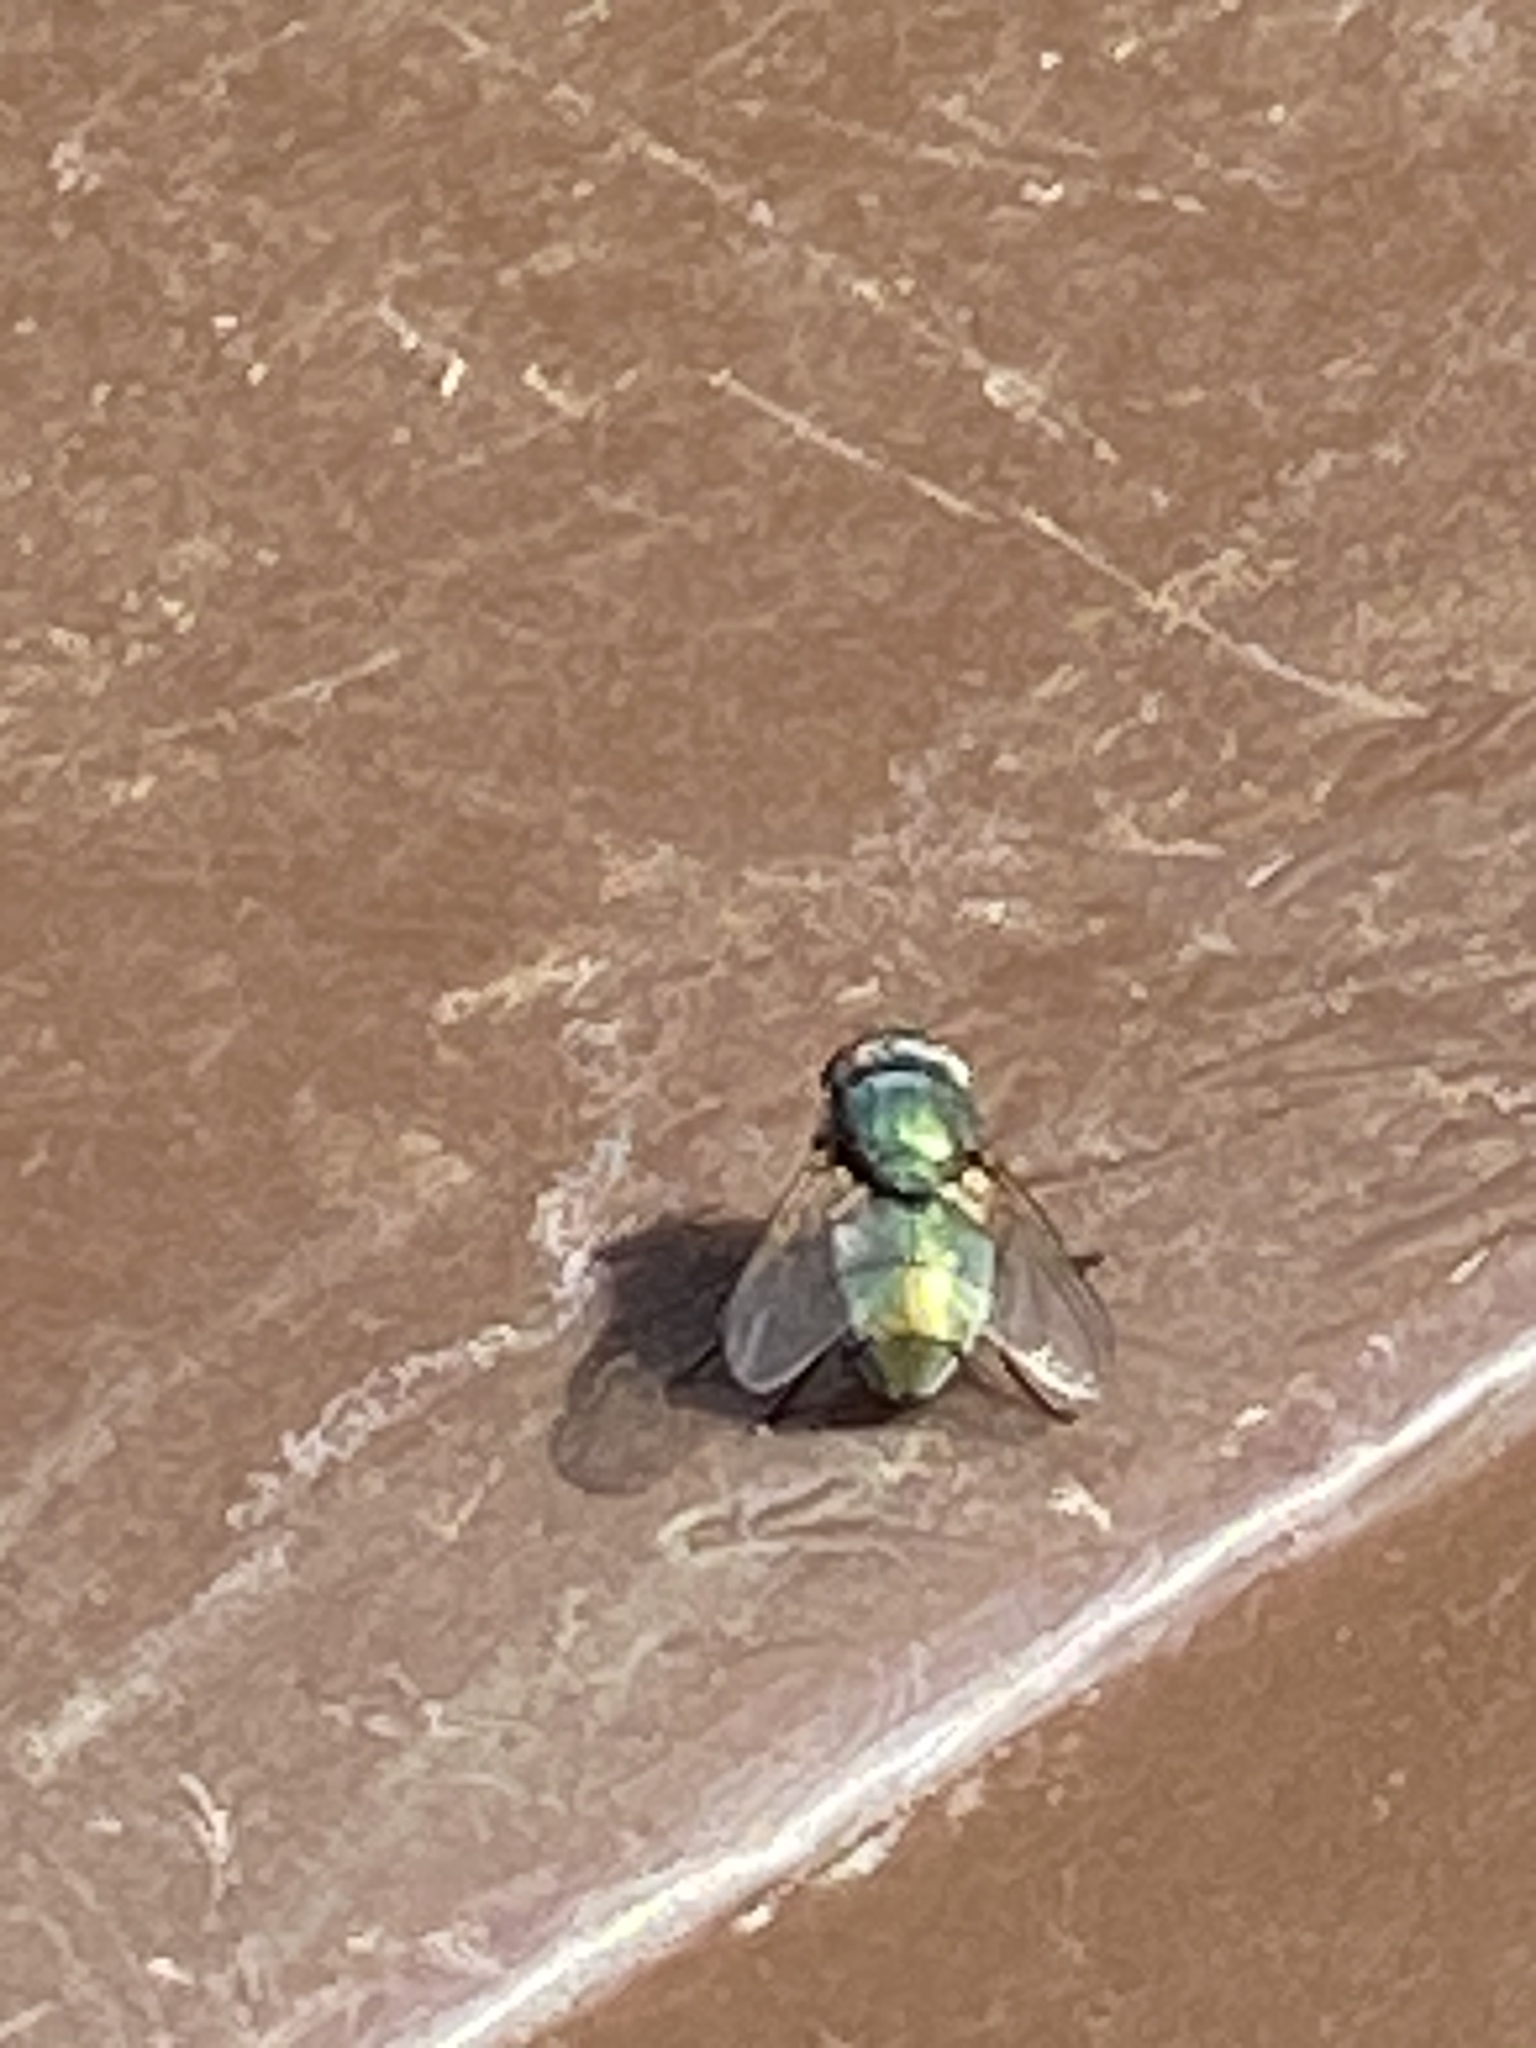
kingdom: Animalia
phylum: Arthropoda
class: Insecta
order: Diptera
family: Calliphoridae
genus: Lucilia
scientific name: Lucilia sericata
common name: Blow fly
